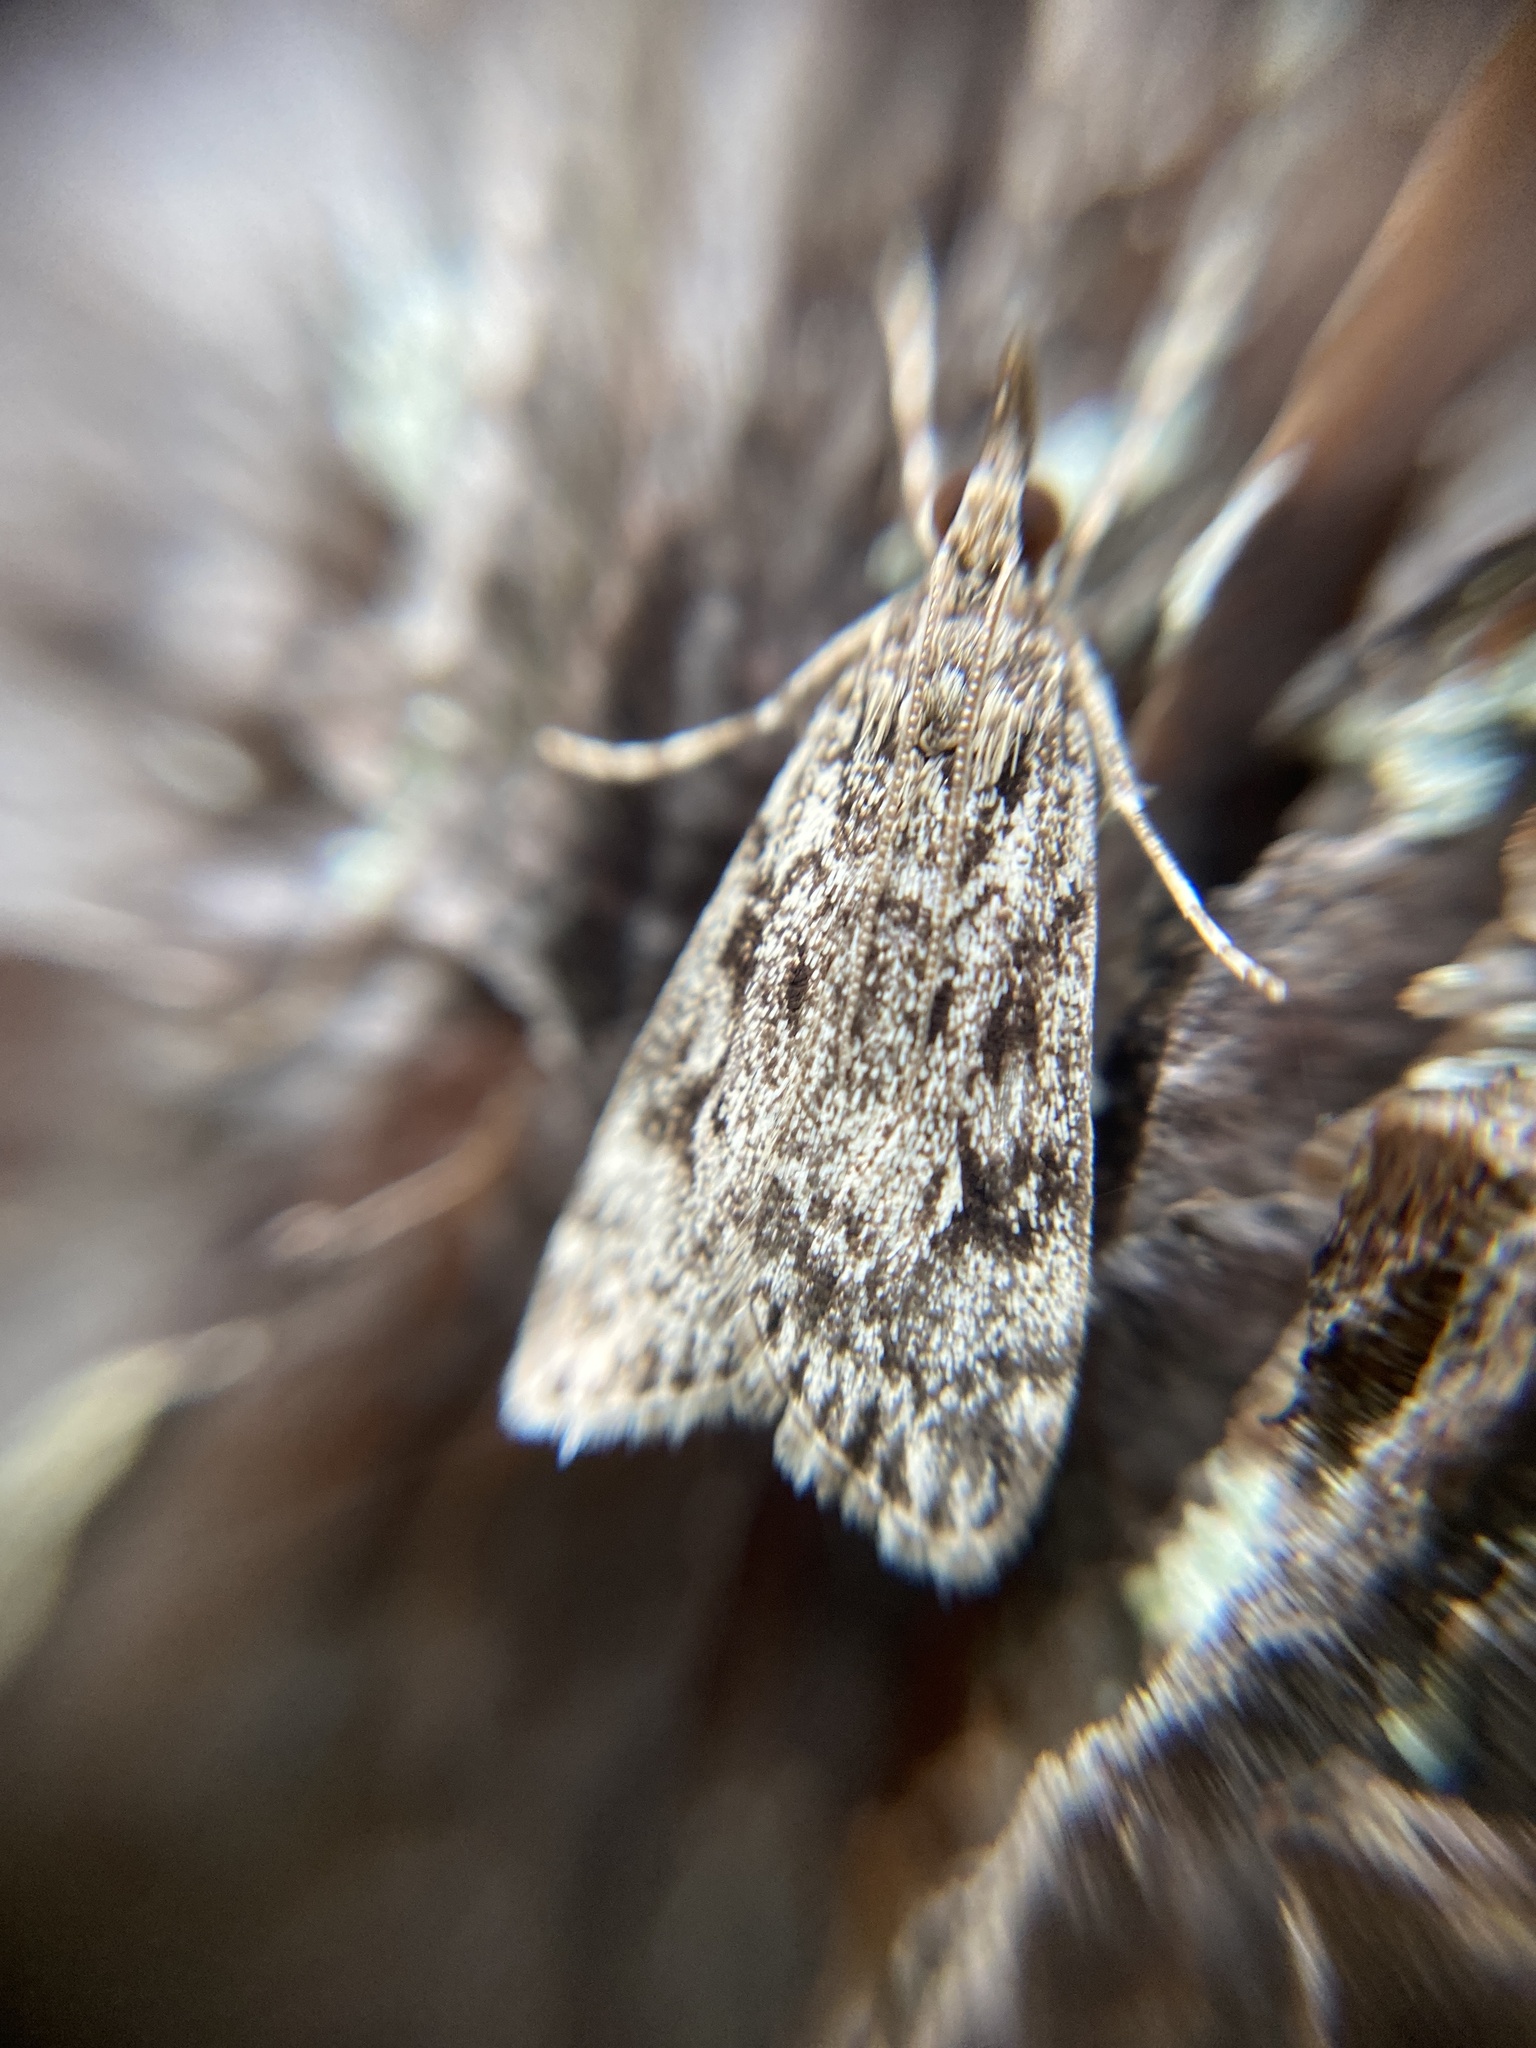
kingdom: Animalia
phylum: Arthropoda
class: Insecta
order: Lepidoptera
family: Crambidae
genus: Eudonia
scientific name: Eudonia truncicolella
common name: Ground-moss grey
